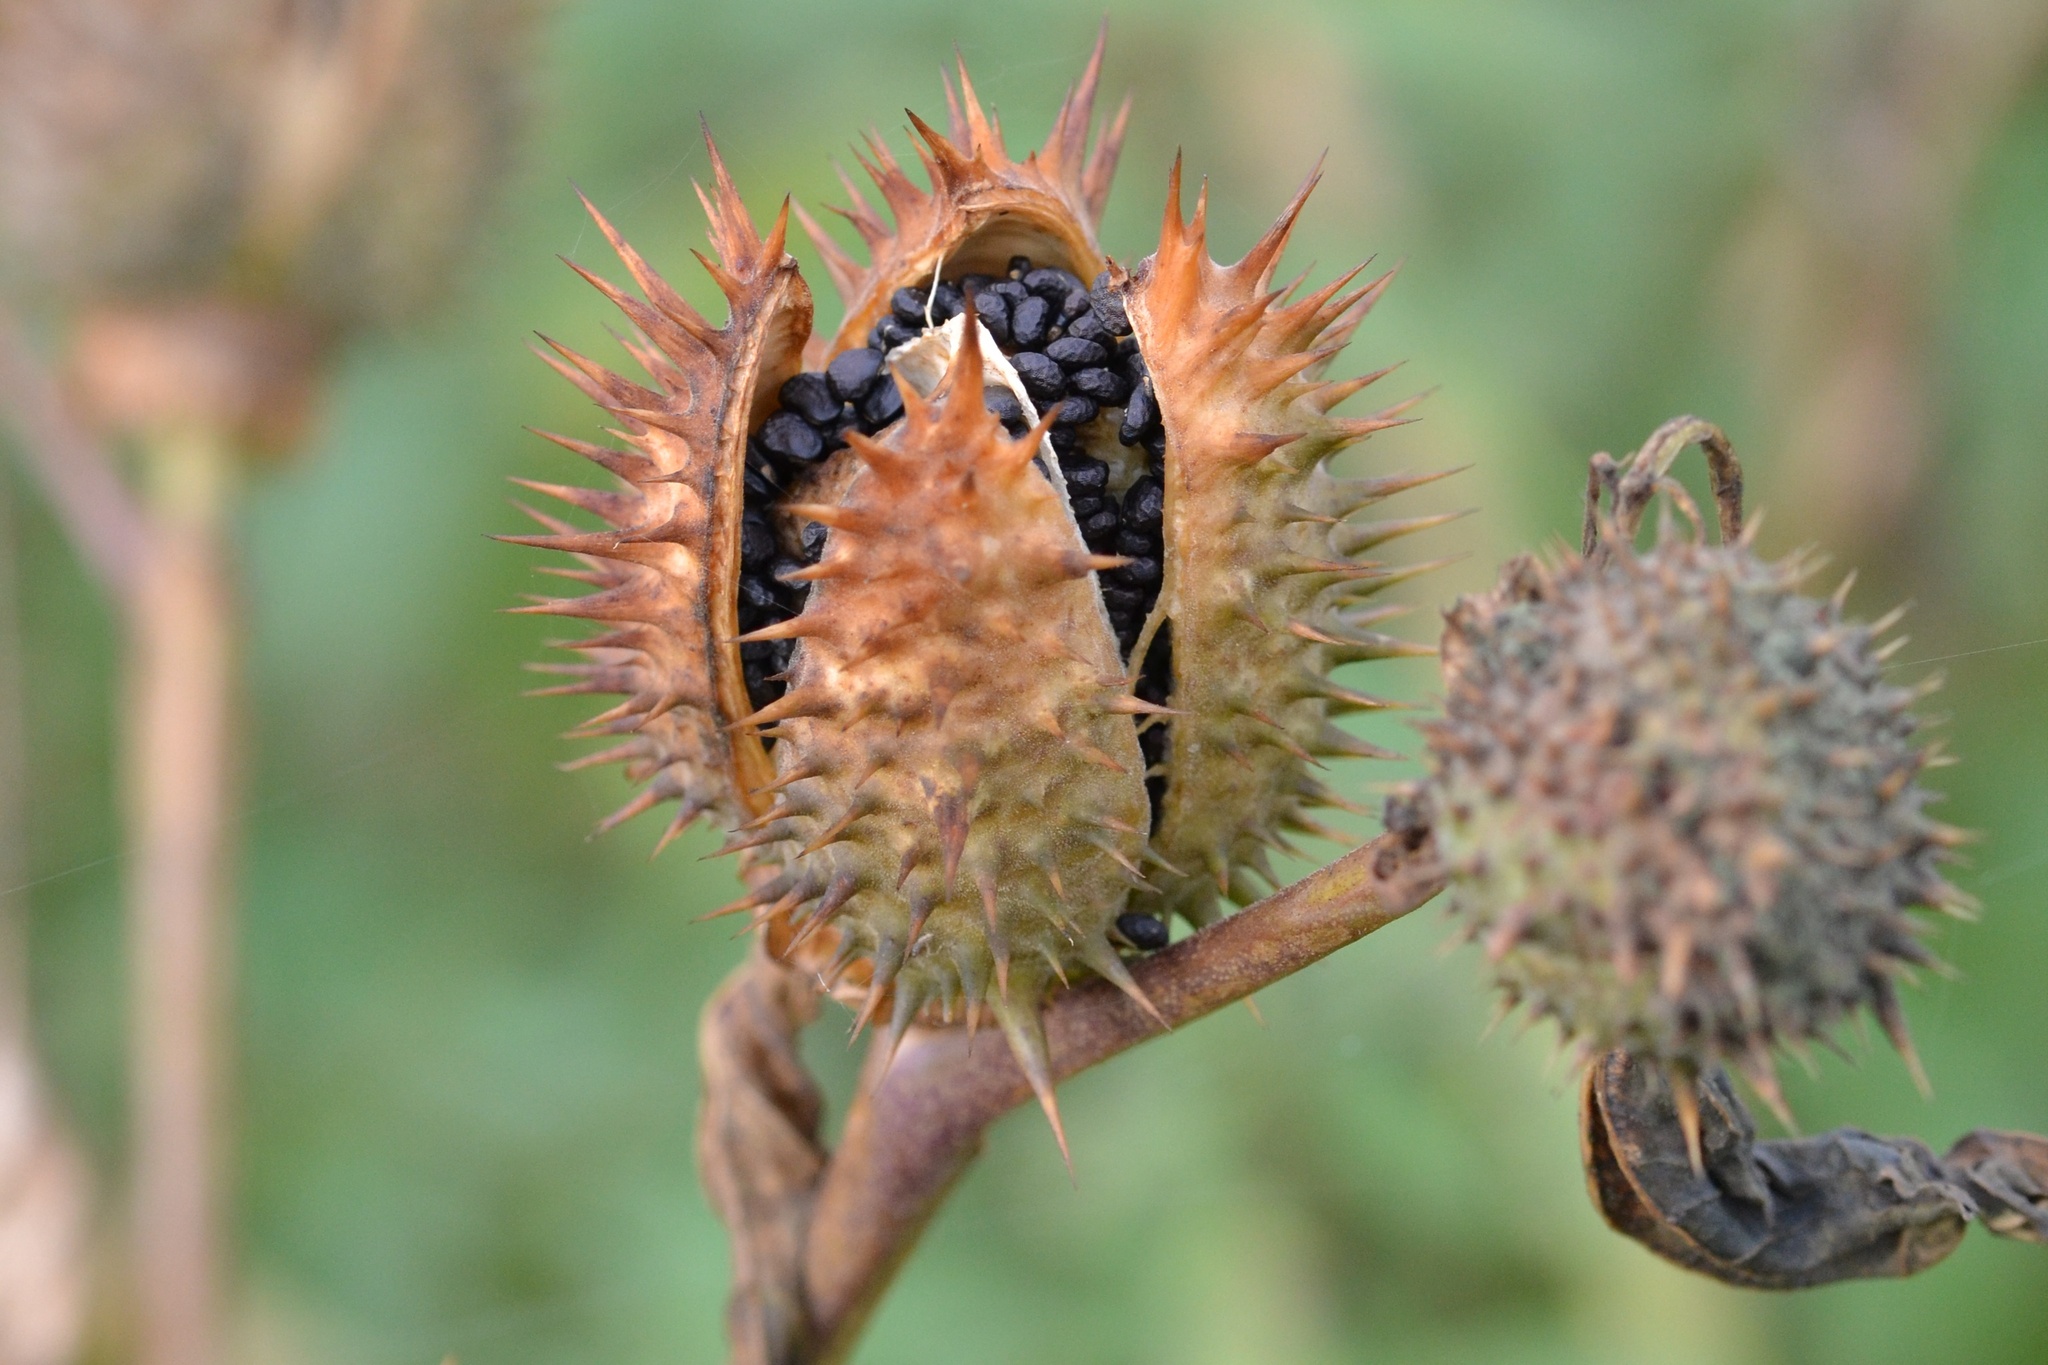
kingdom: Plantae
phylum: Tracheophyta
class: Magnoliopsida
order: Solanales
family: Solanaceae
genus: Datura
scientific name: Datura stramonium
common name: Thorn-apple
